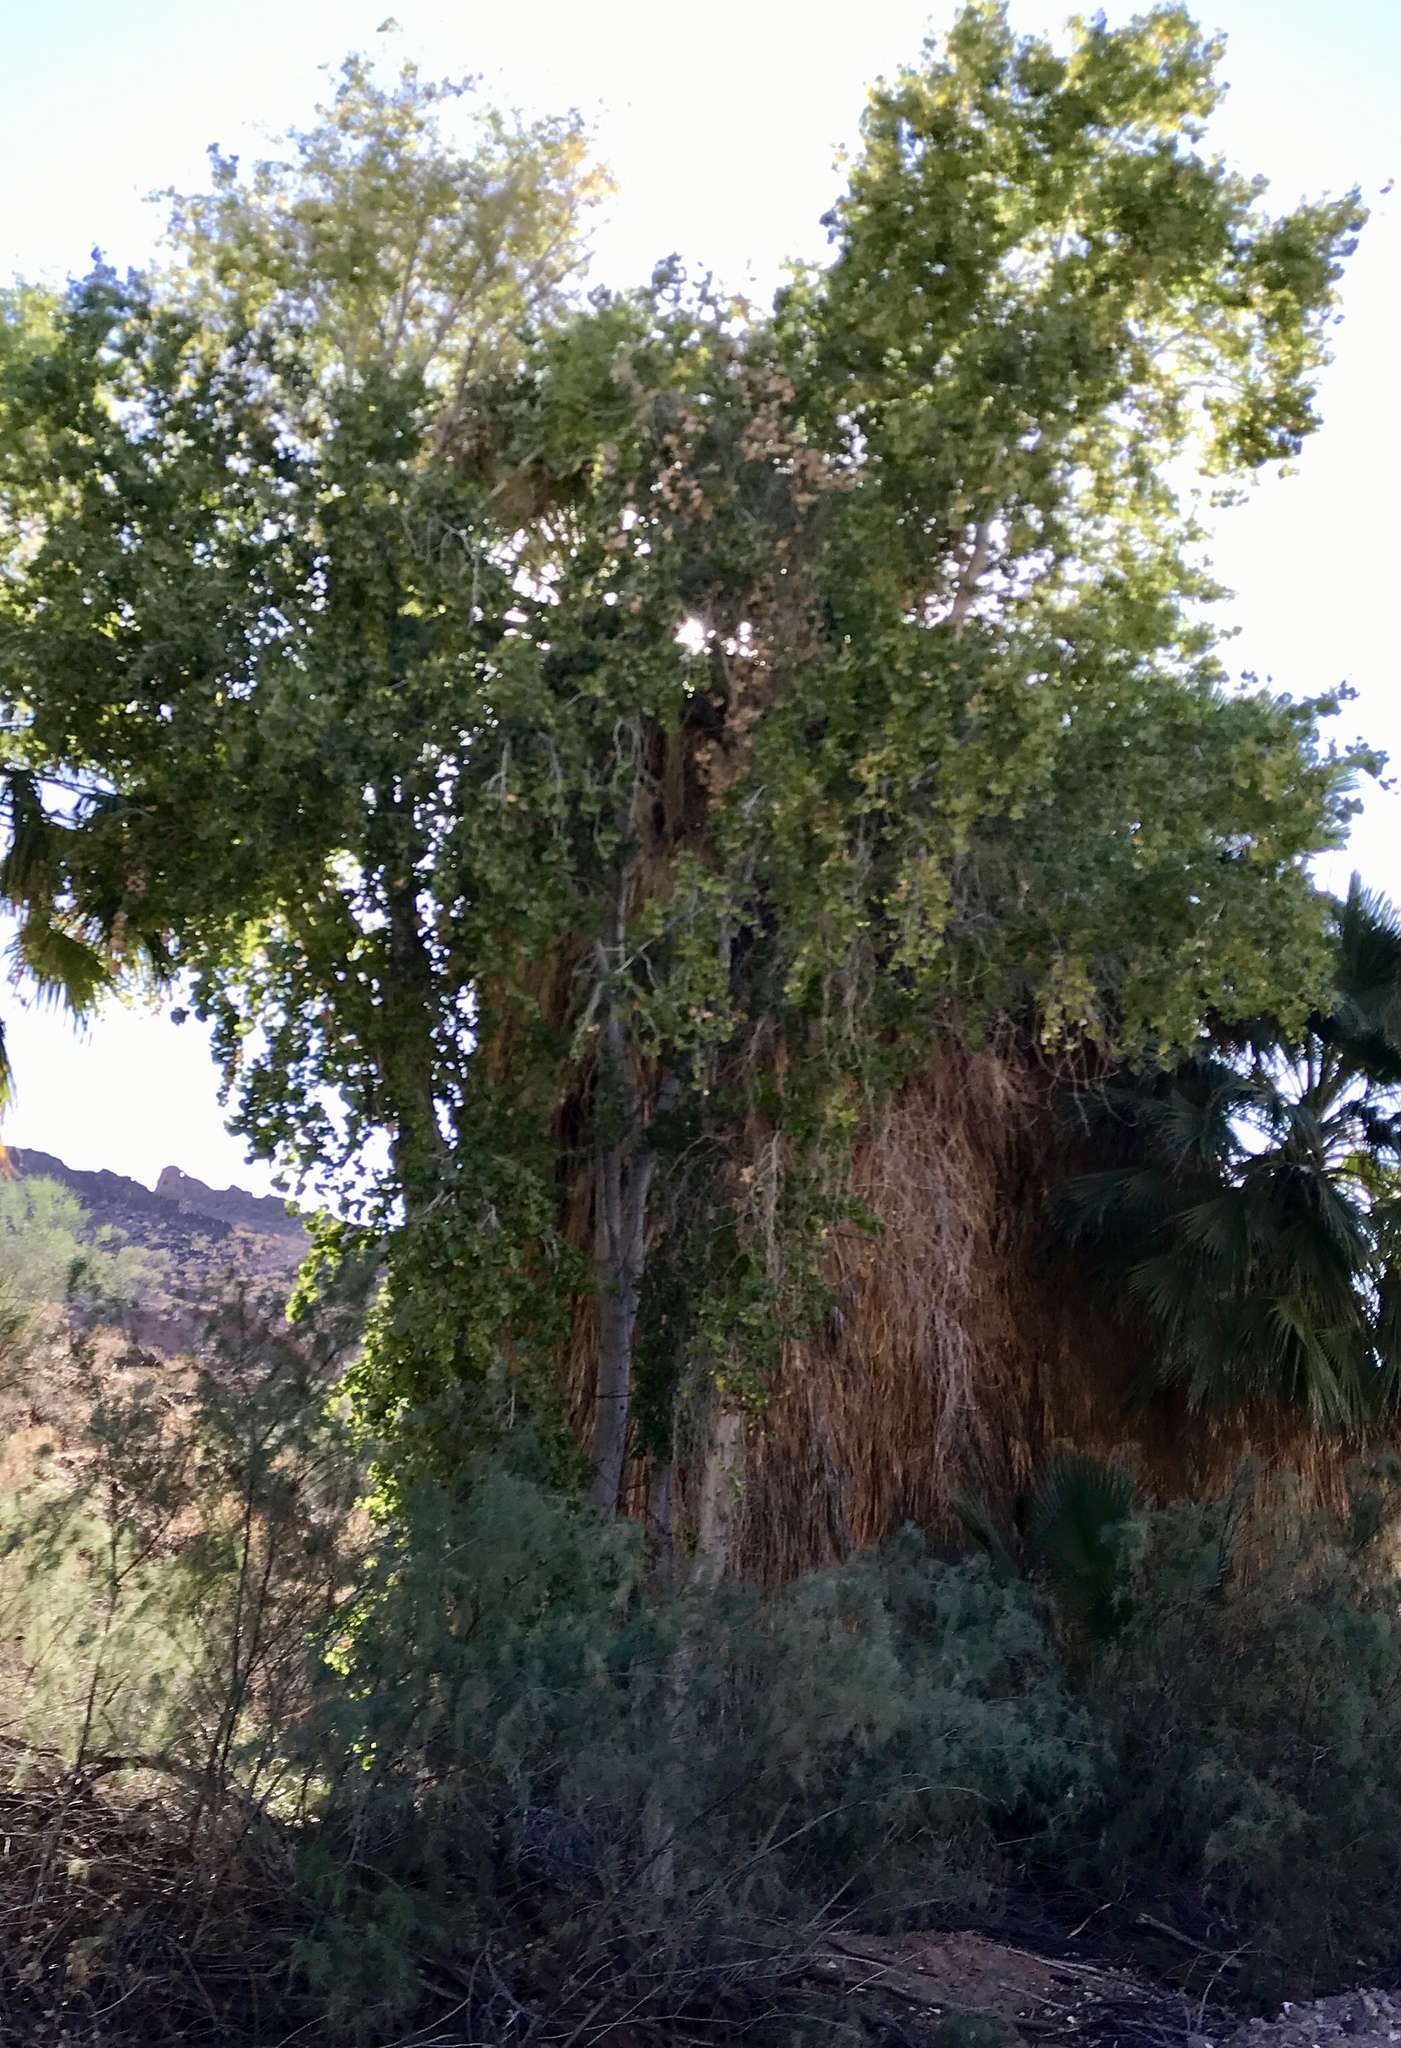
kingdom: Plantae
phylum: Tracheophyta
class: Magnoliopsida
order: Malpighiales
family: Salicaceae
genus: Populus
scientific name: Populus fremontii
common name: Fremont's cottonwood
